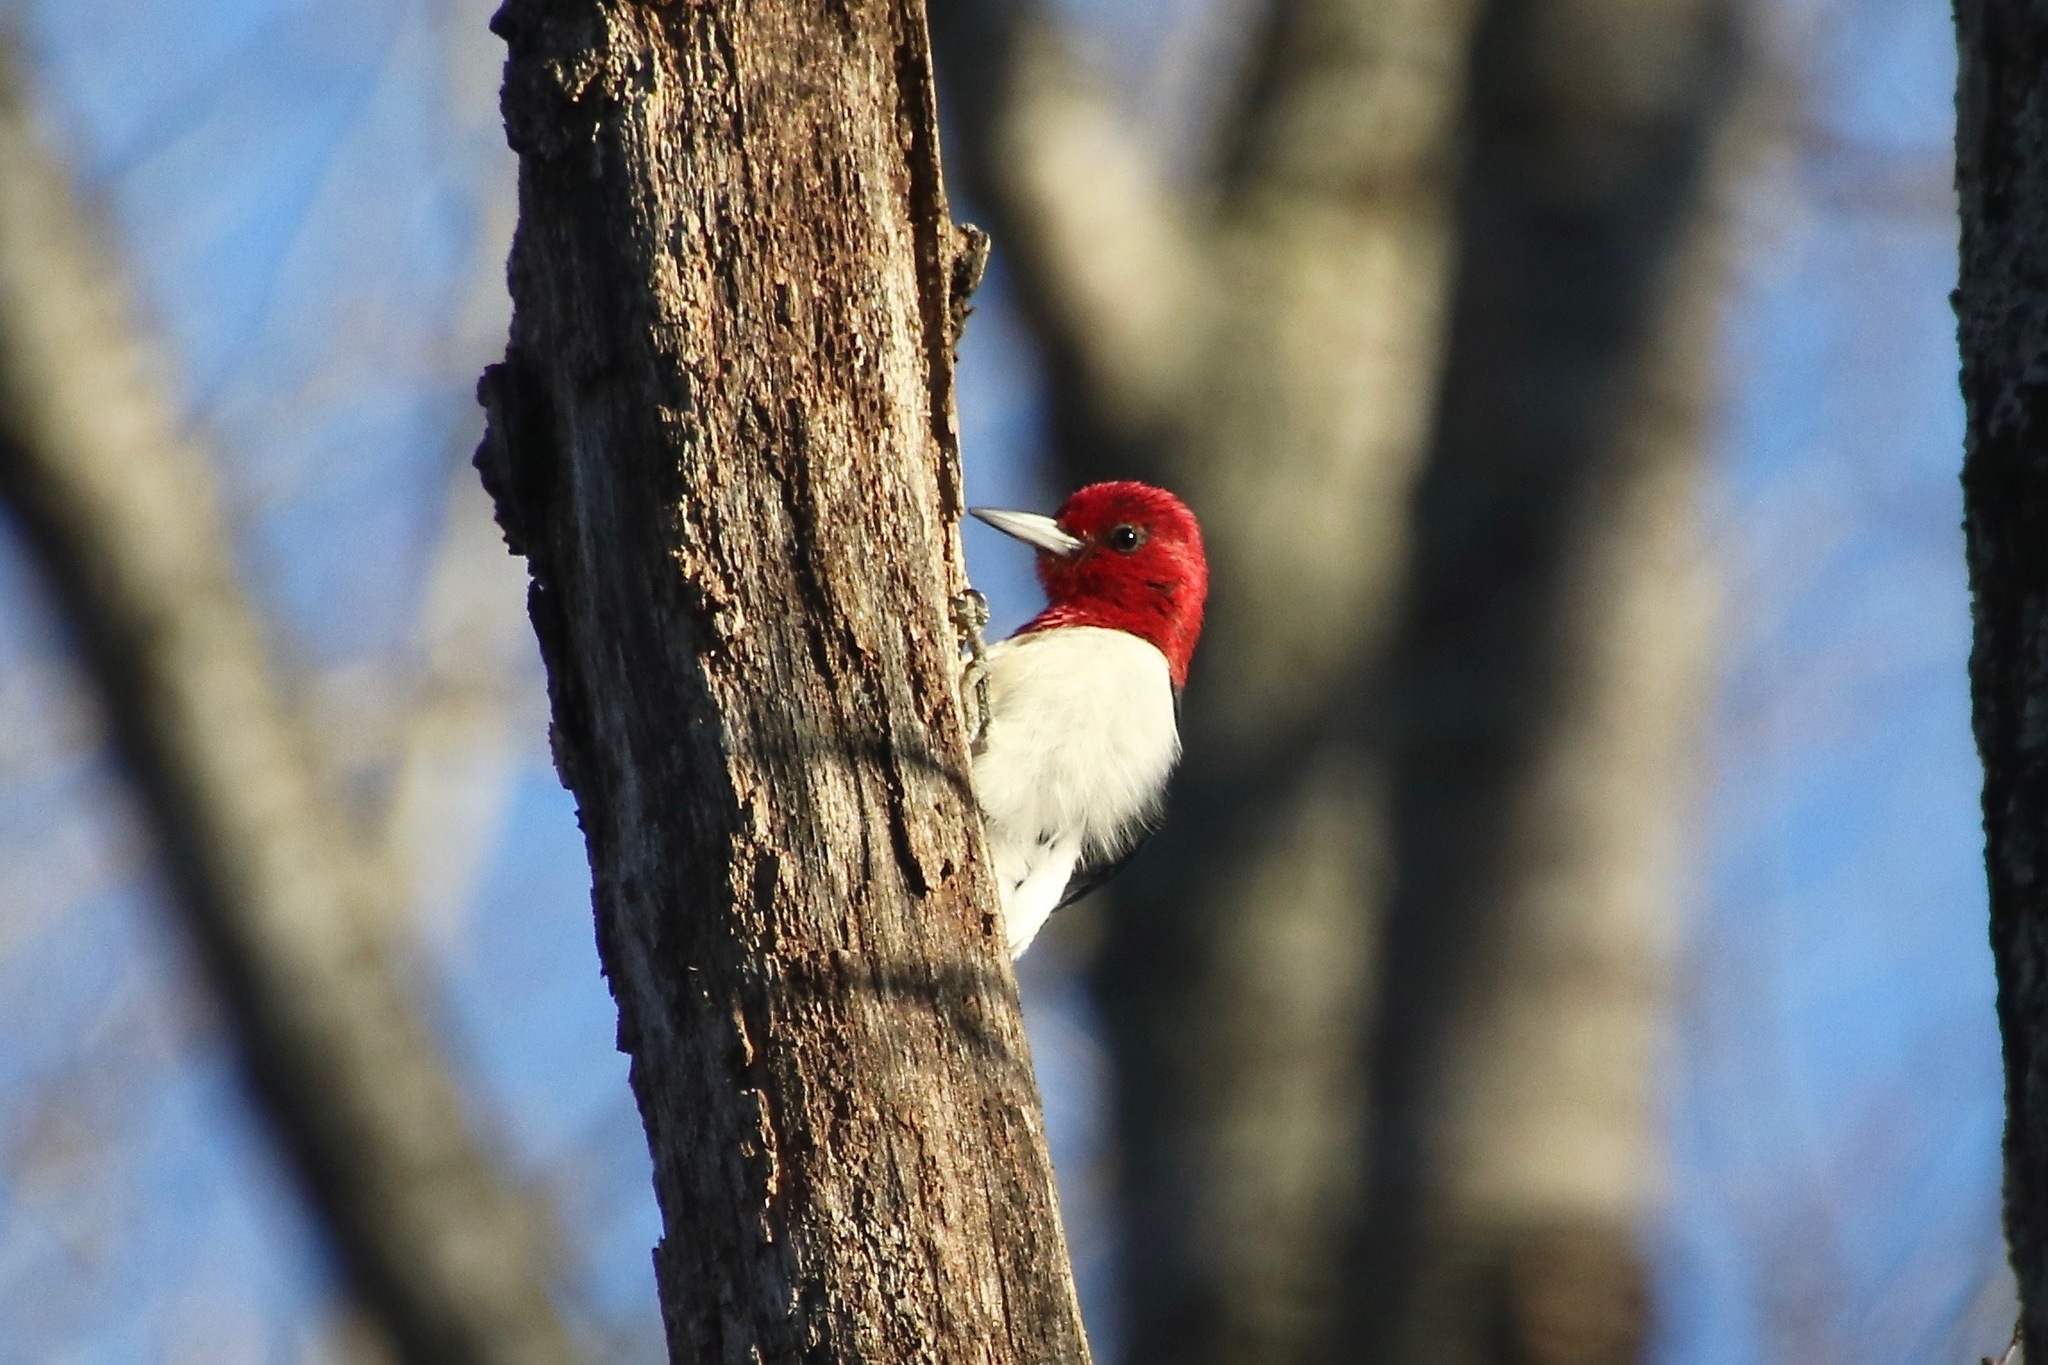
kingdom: Animalia
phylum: Chordata
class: Aves
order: Piciformes
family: Picidae
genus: Melanerpes
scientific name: Melanerpes erythrocephalus
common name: Red-headed woodpecker
